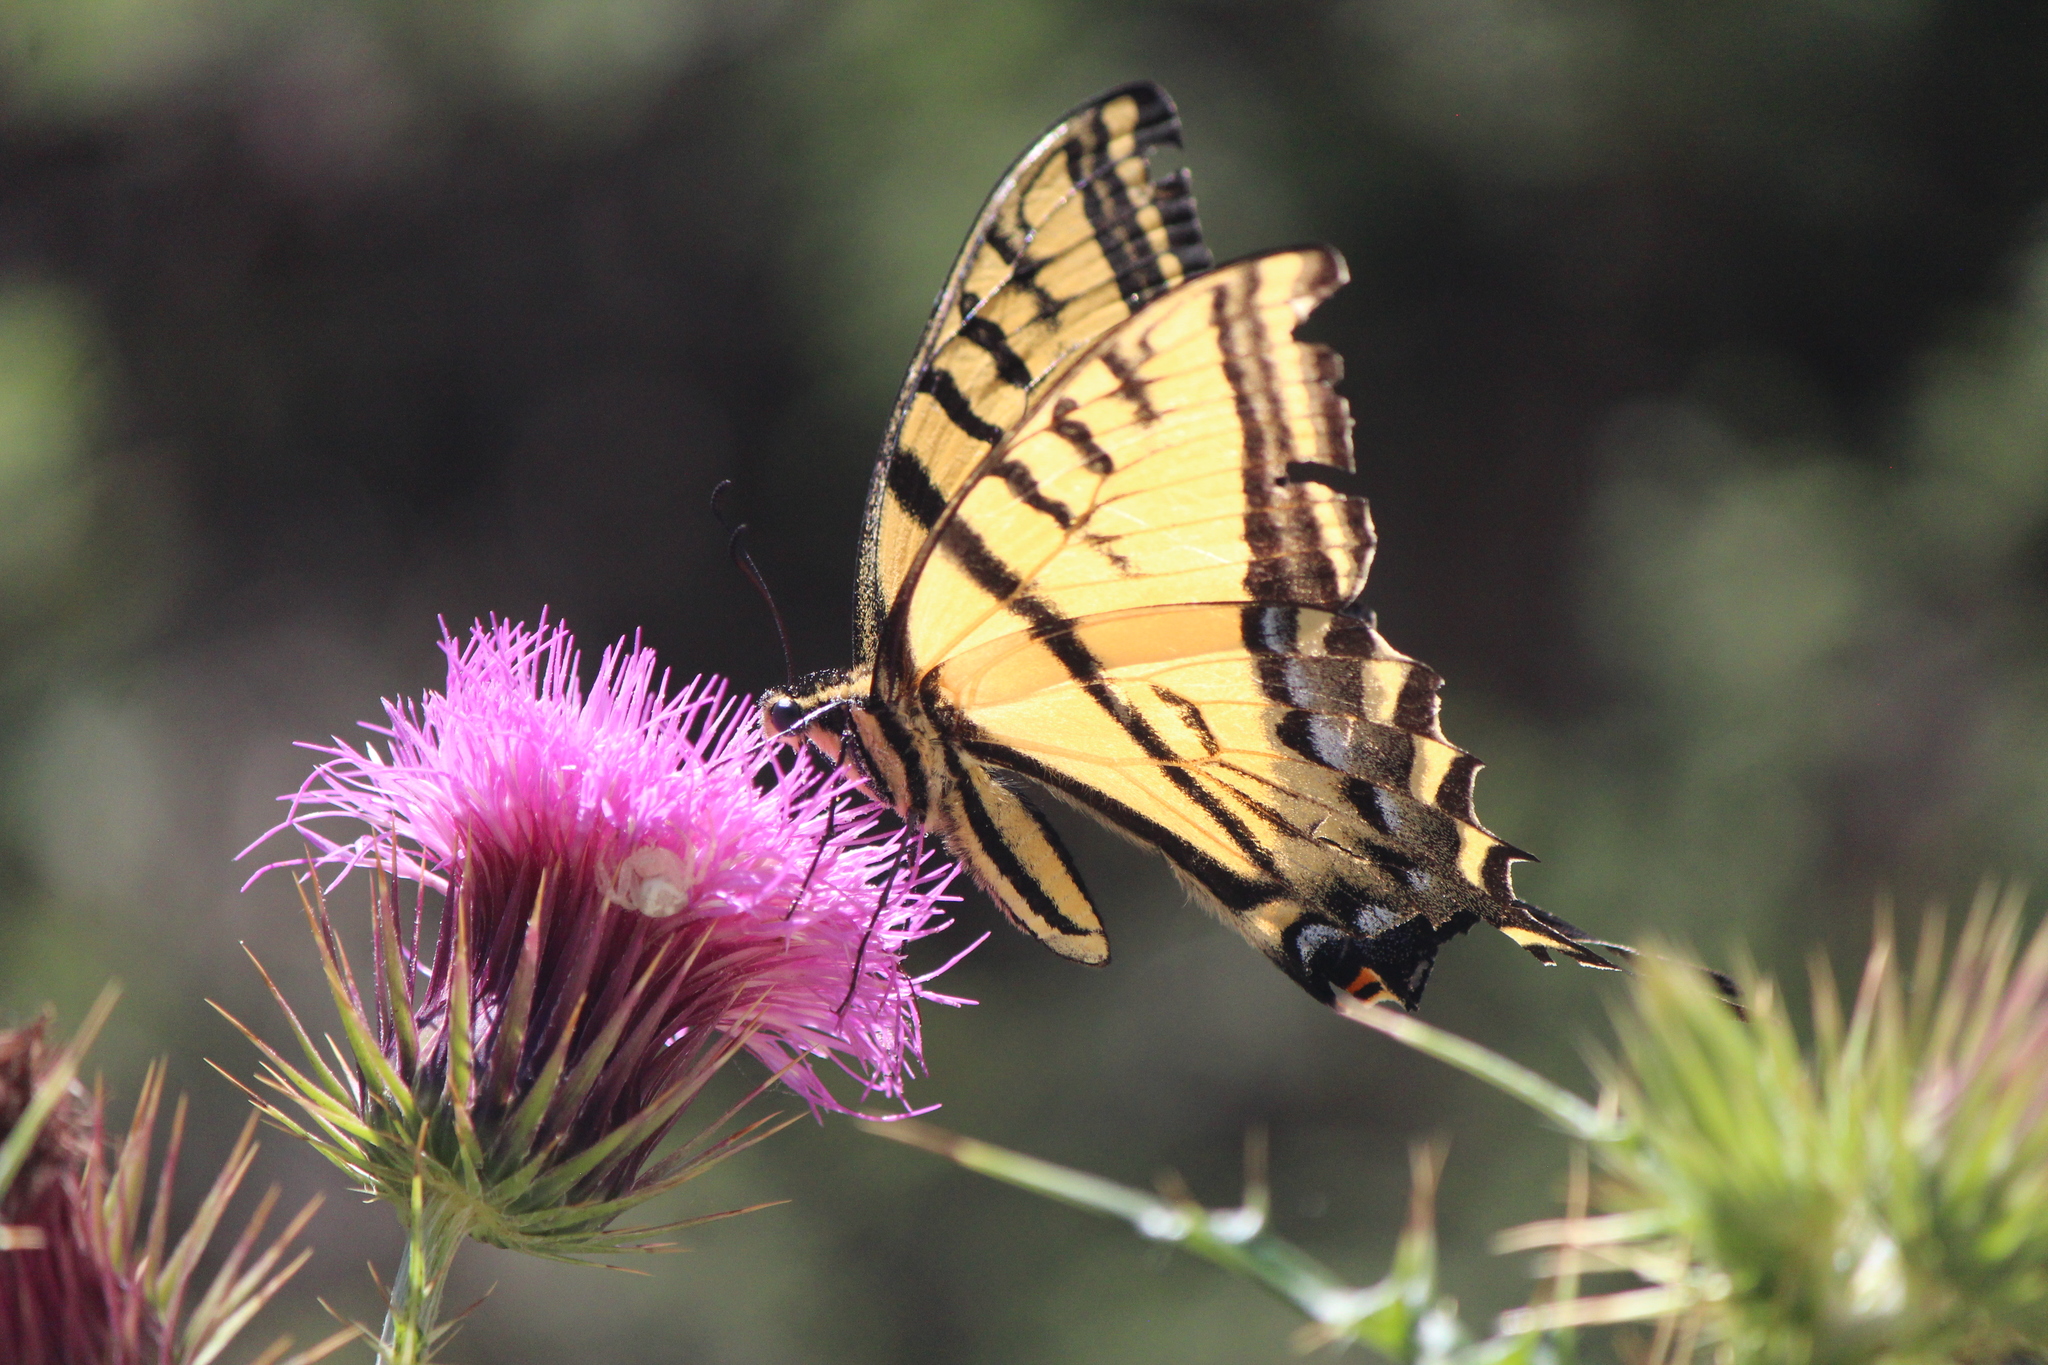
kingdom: Animalia
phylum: Arthropoda
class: Insecta
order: Lepidoptera
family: Papilionidae
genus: Papilio
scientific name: Papilio multicaudata
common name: Two-tailed tiger swallowtail
